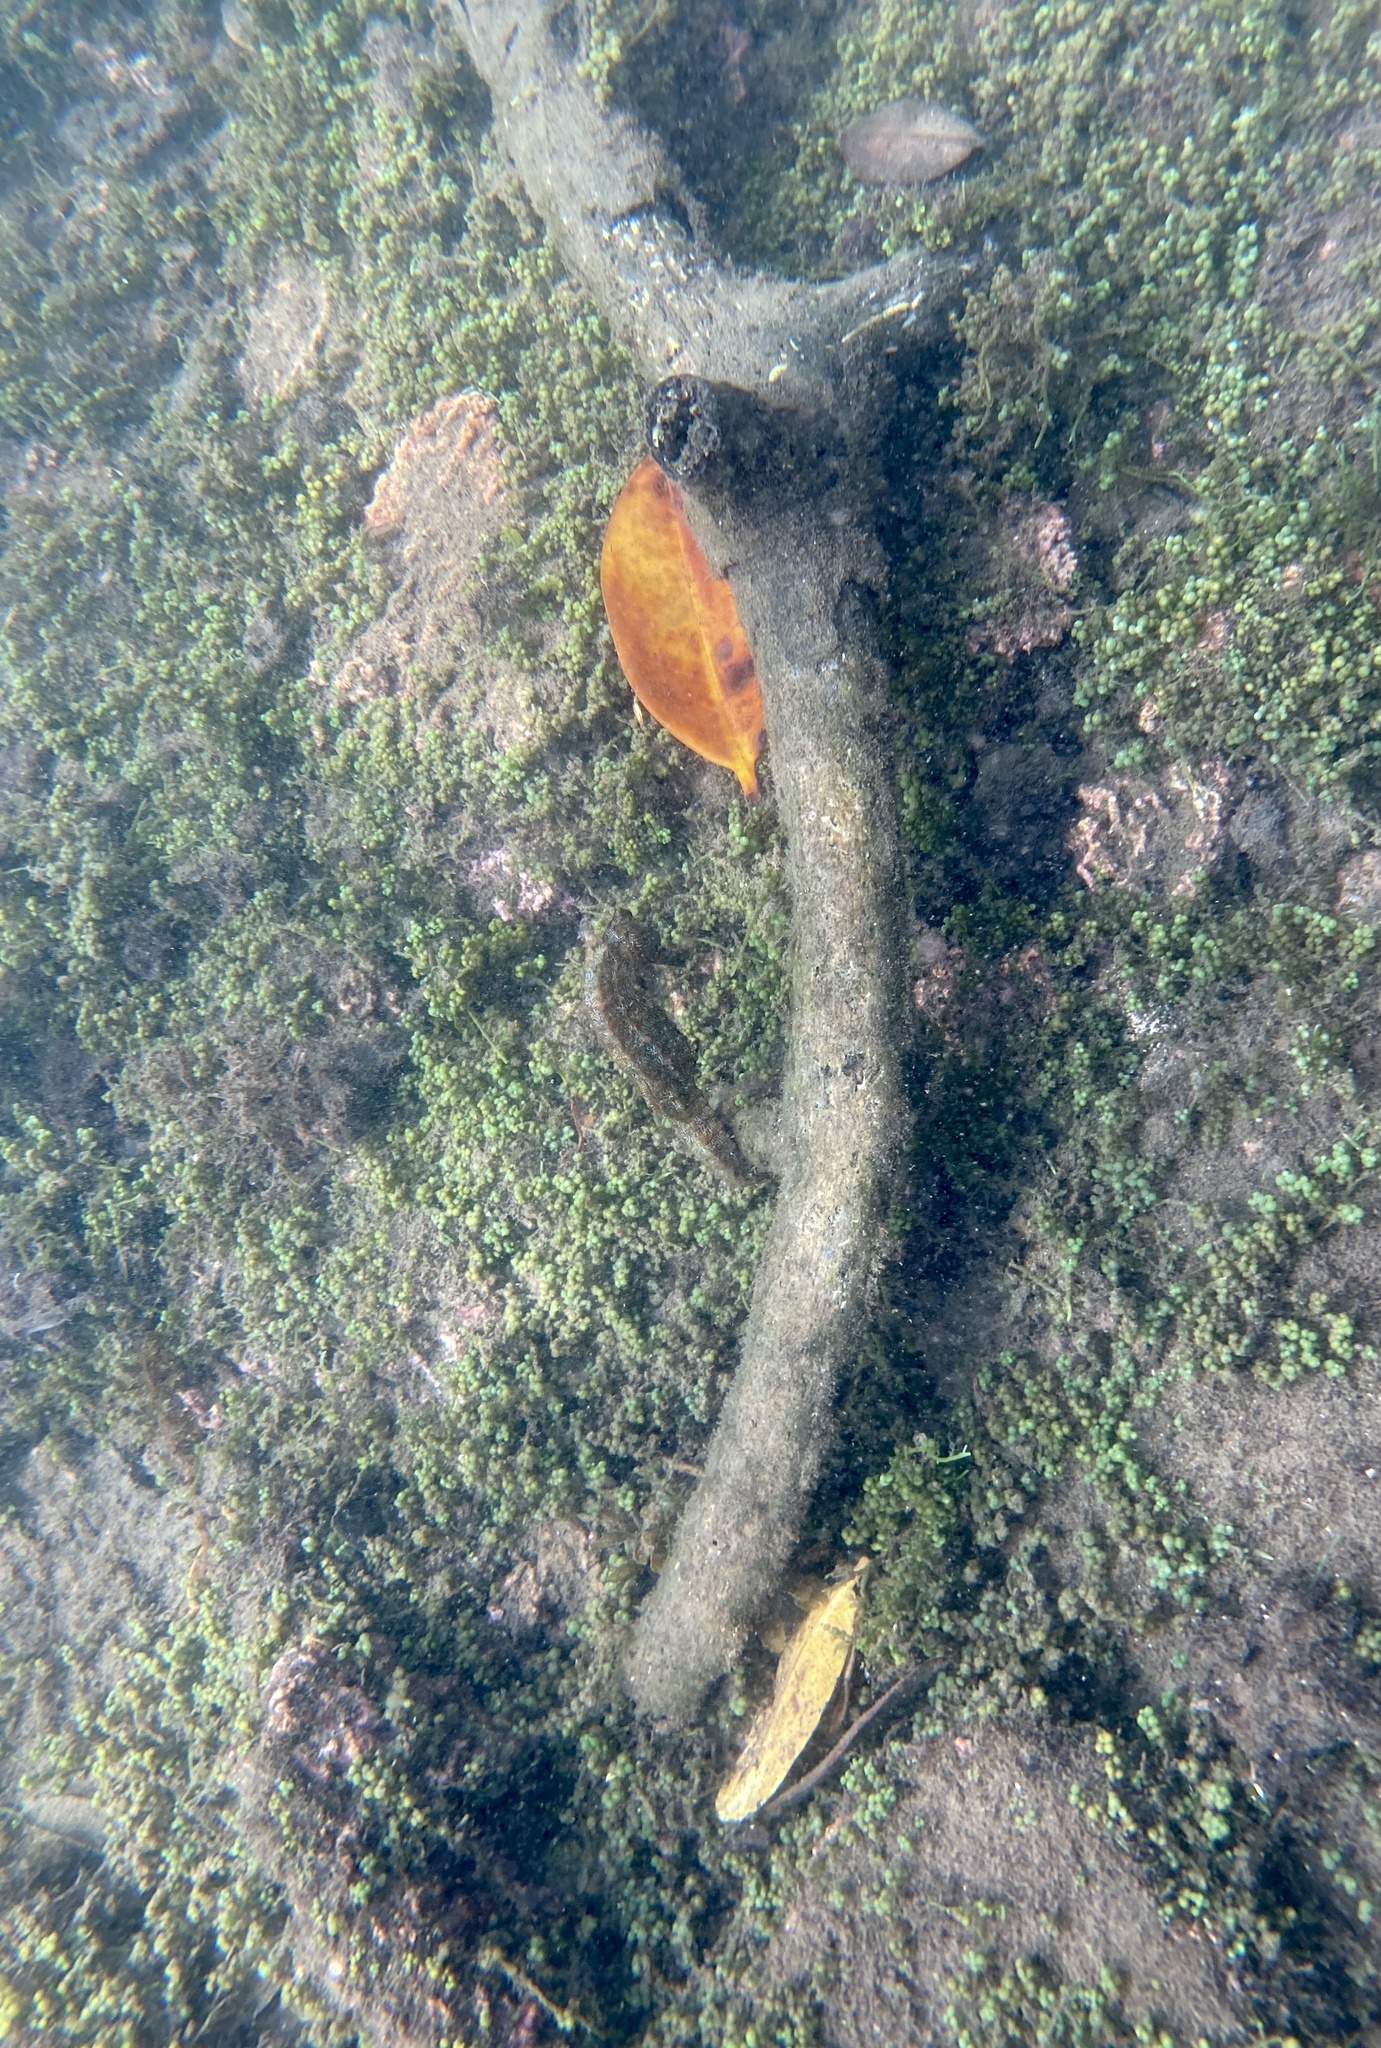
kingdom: Animalia
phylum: Chordata
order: Syngnathiformes
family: Syngnathidae
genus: Hippocampus
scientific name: Hippocampus ingens
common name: Giant seahorse
